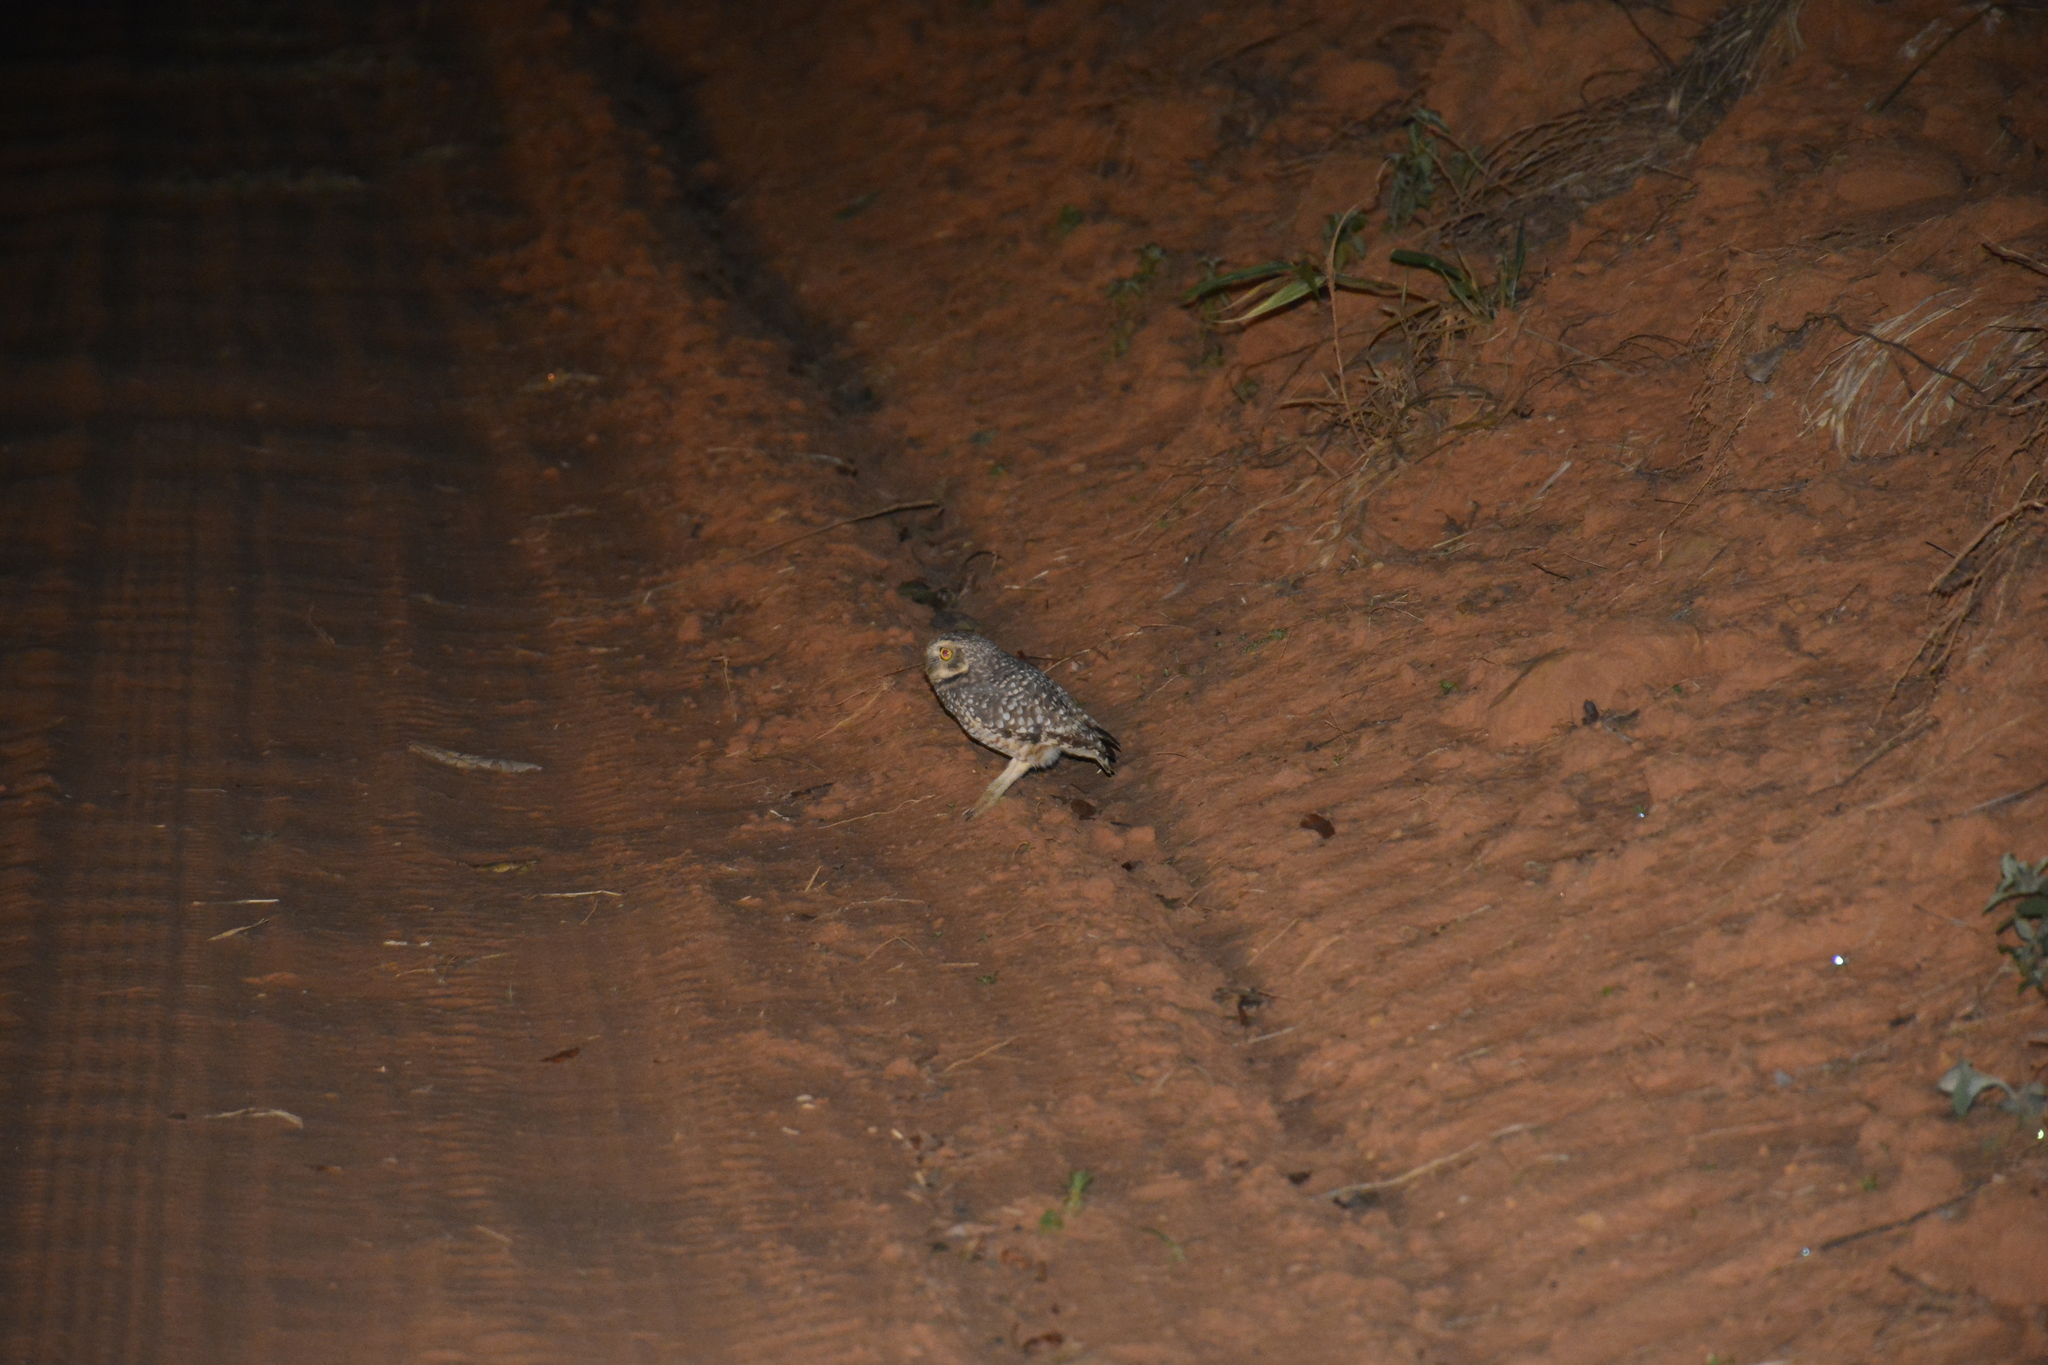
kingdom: Animalia
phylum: Chordata
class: Aves
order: Strigiformes
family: Strigidae
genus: Athene
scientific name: Athene cunicularia
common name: Burrowing owl
